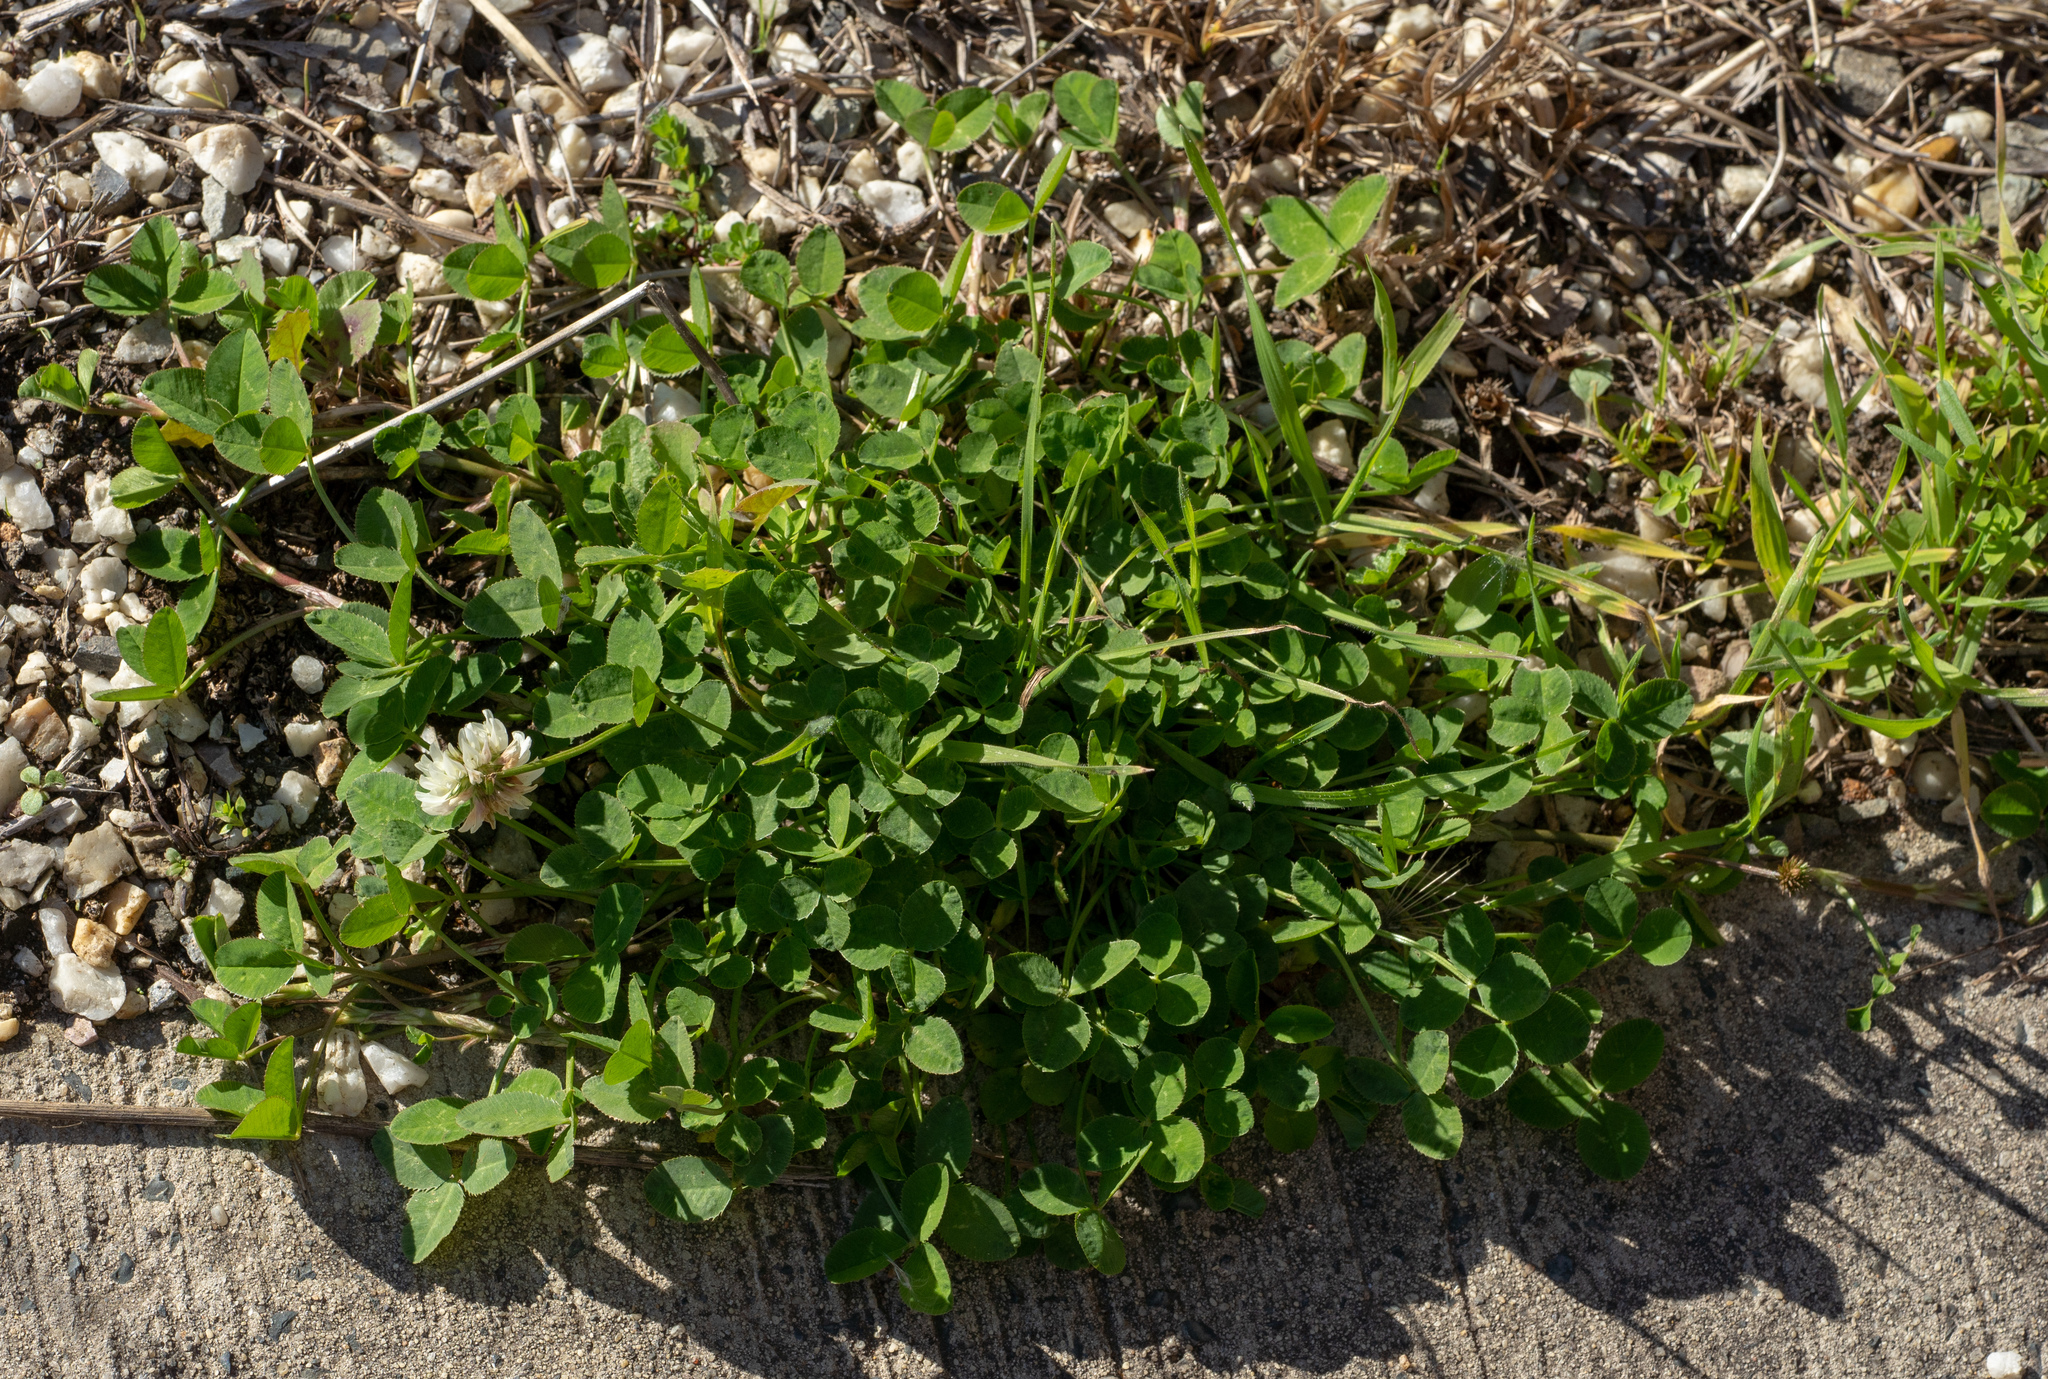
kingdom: Plantae
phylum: Tracheophyta
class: Magnoliopsida
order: Fabales
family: Fabaceae
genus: Trifolium
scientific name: Trifolium repens
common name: White clover
